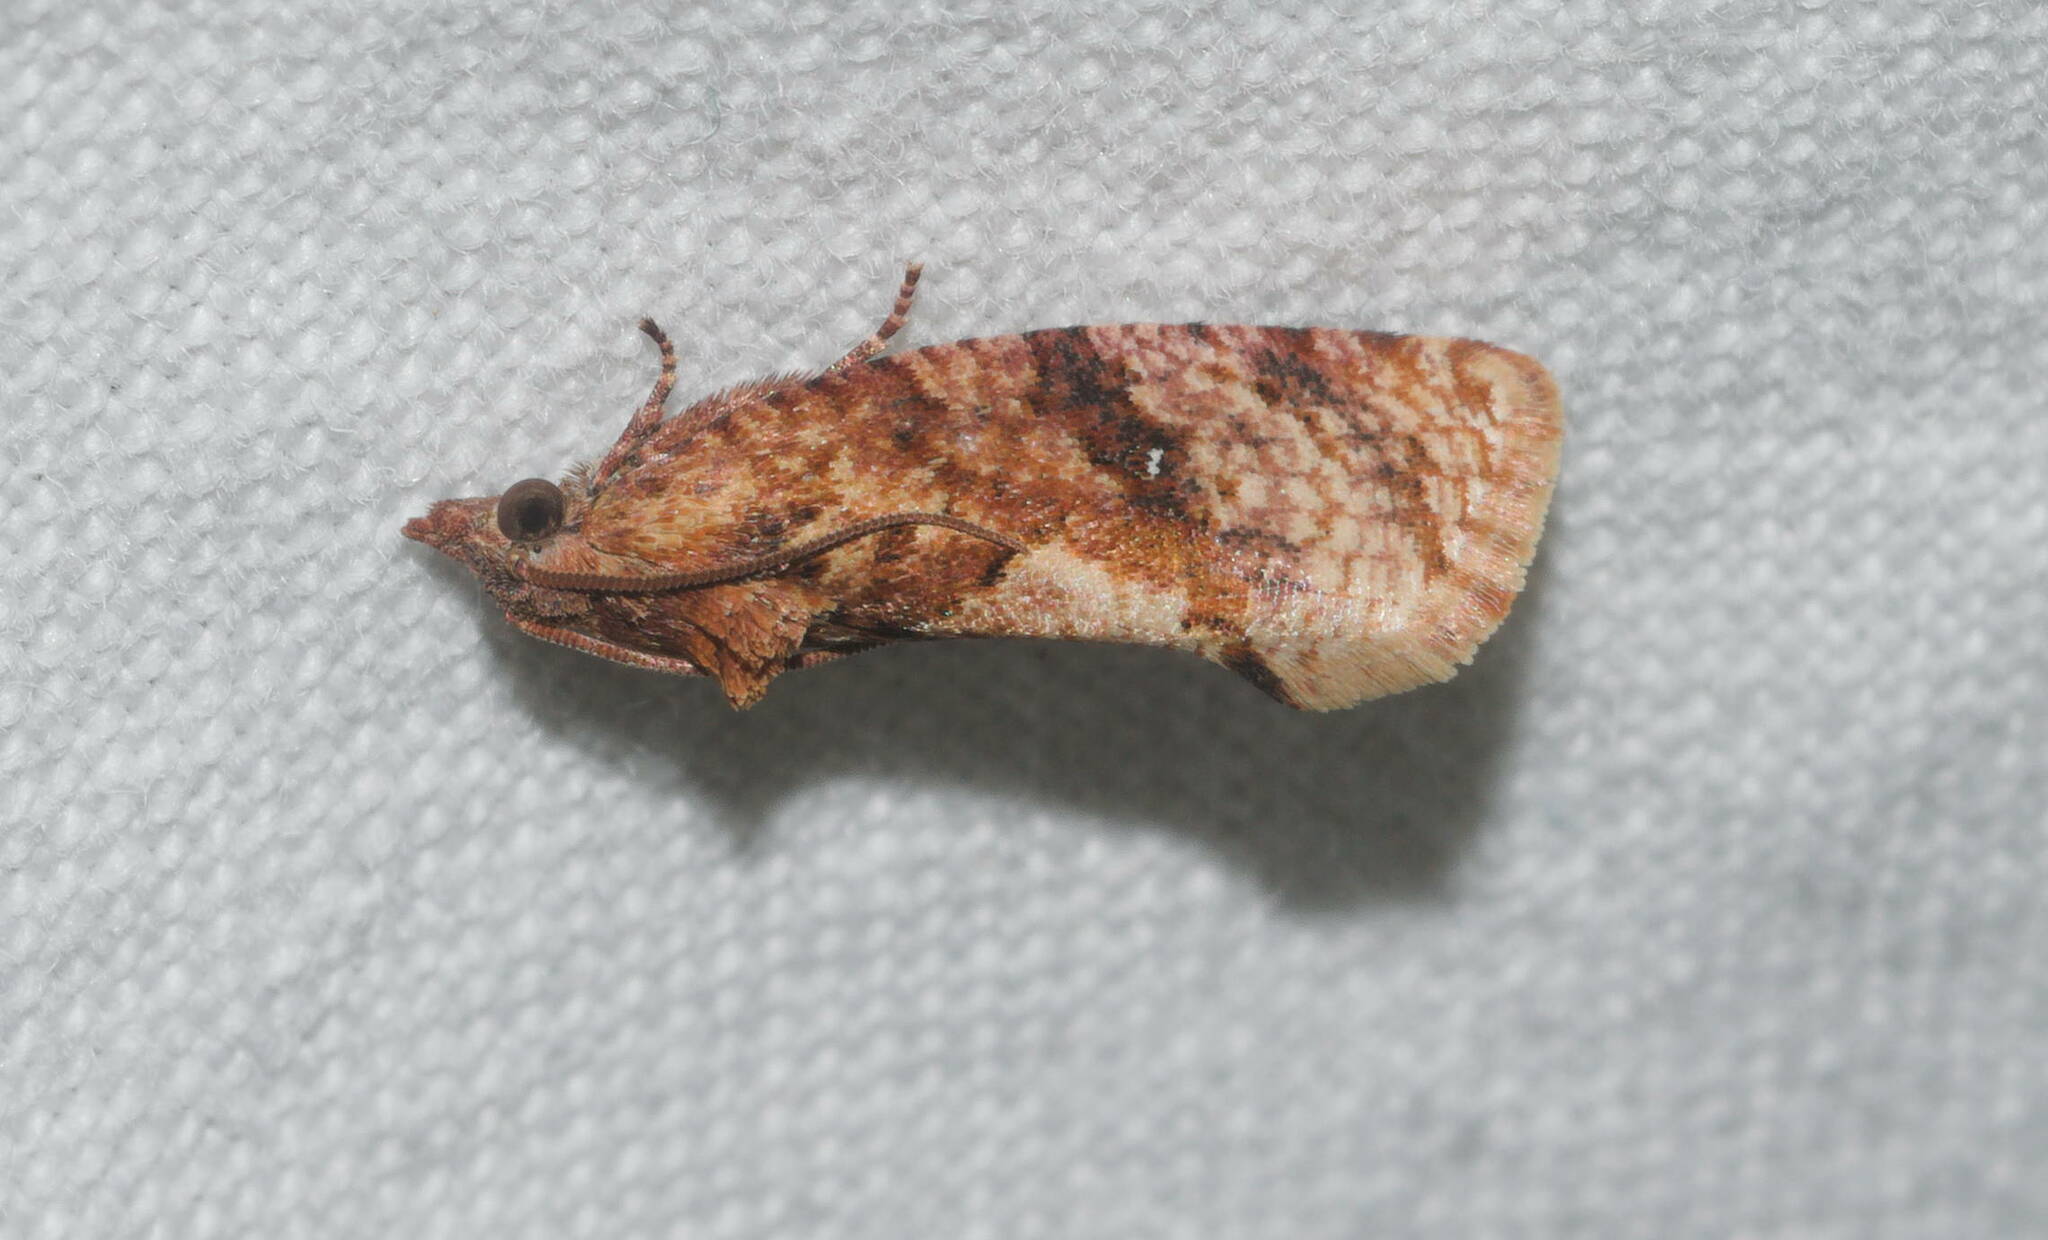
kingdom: Animalia
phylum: Arthropoda
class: Insecta
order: Lepidoptera
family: Tortricidae
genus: Cryptophlebia
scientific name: Cryptophlebia illepida
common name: Moth
